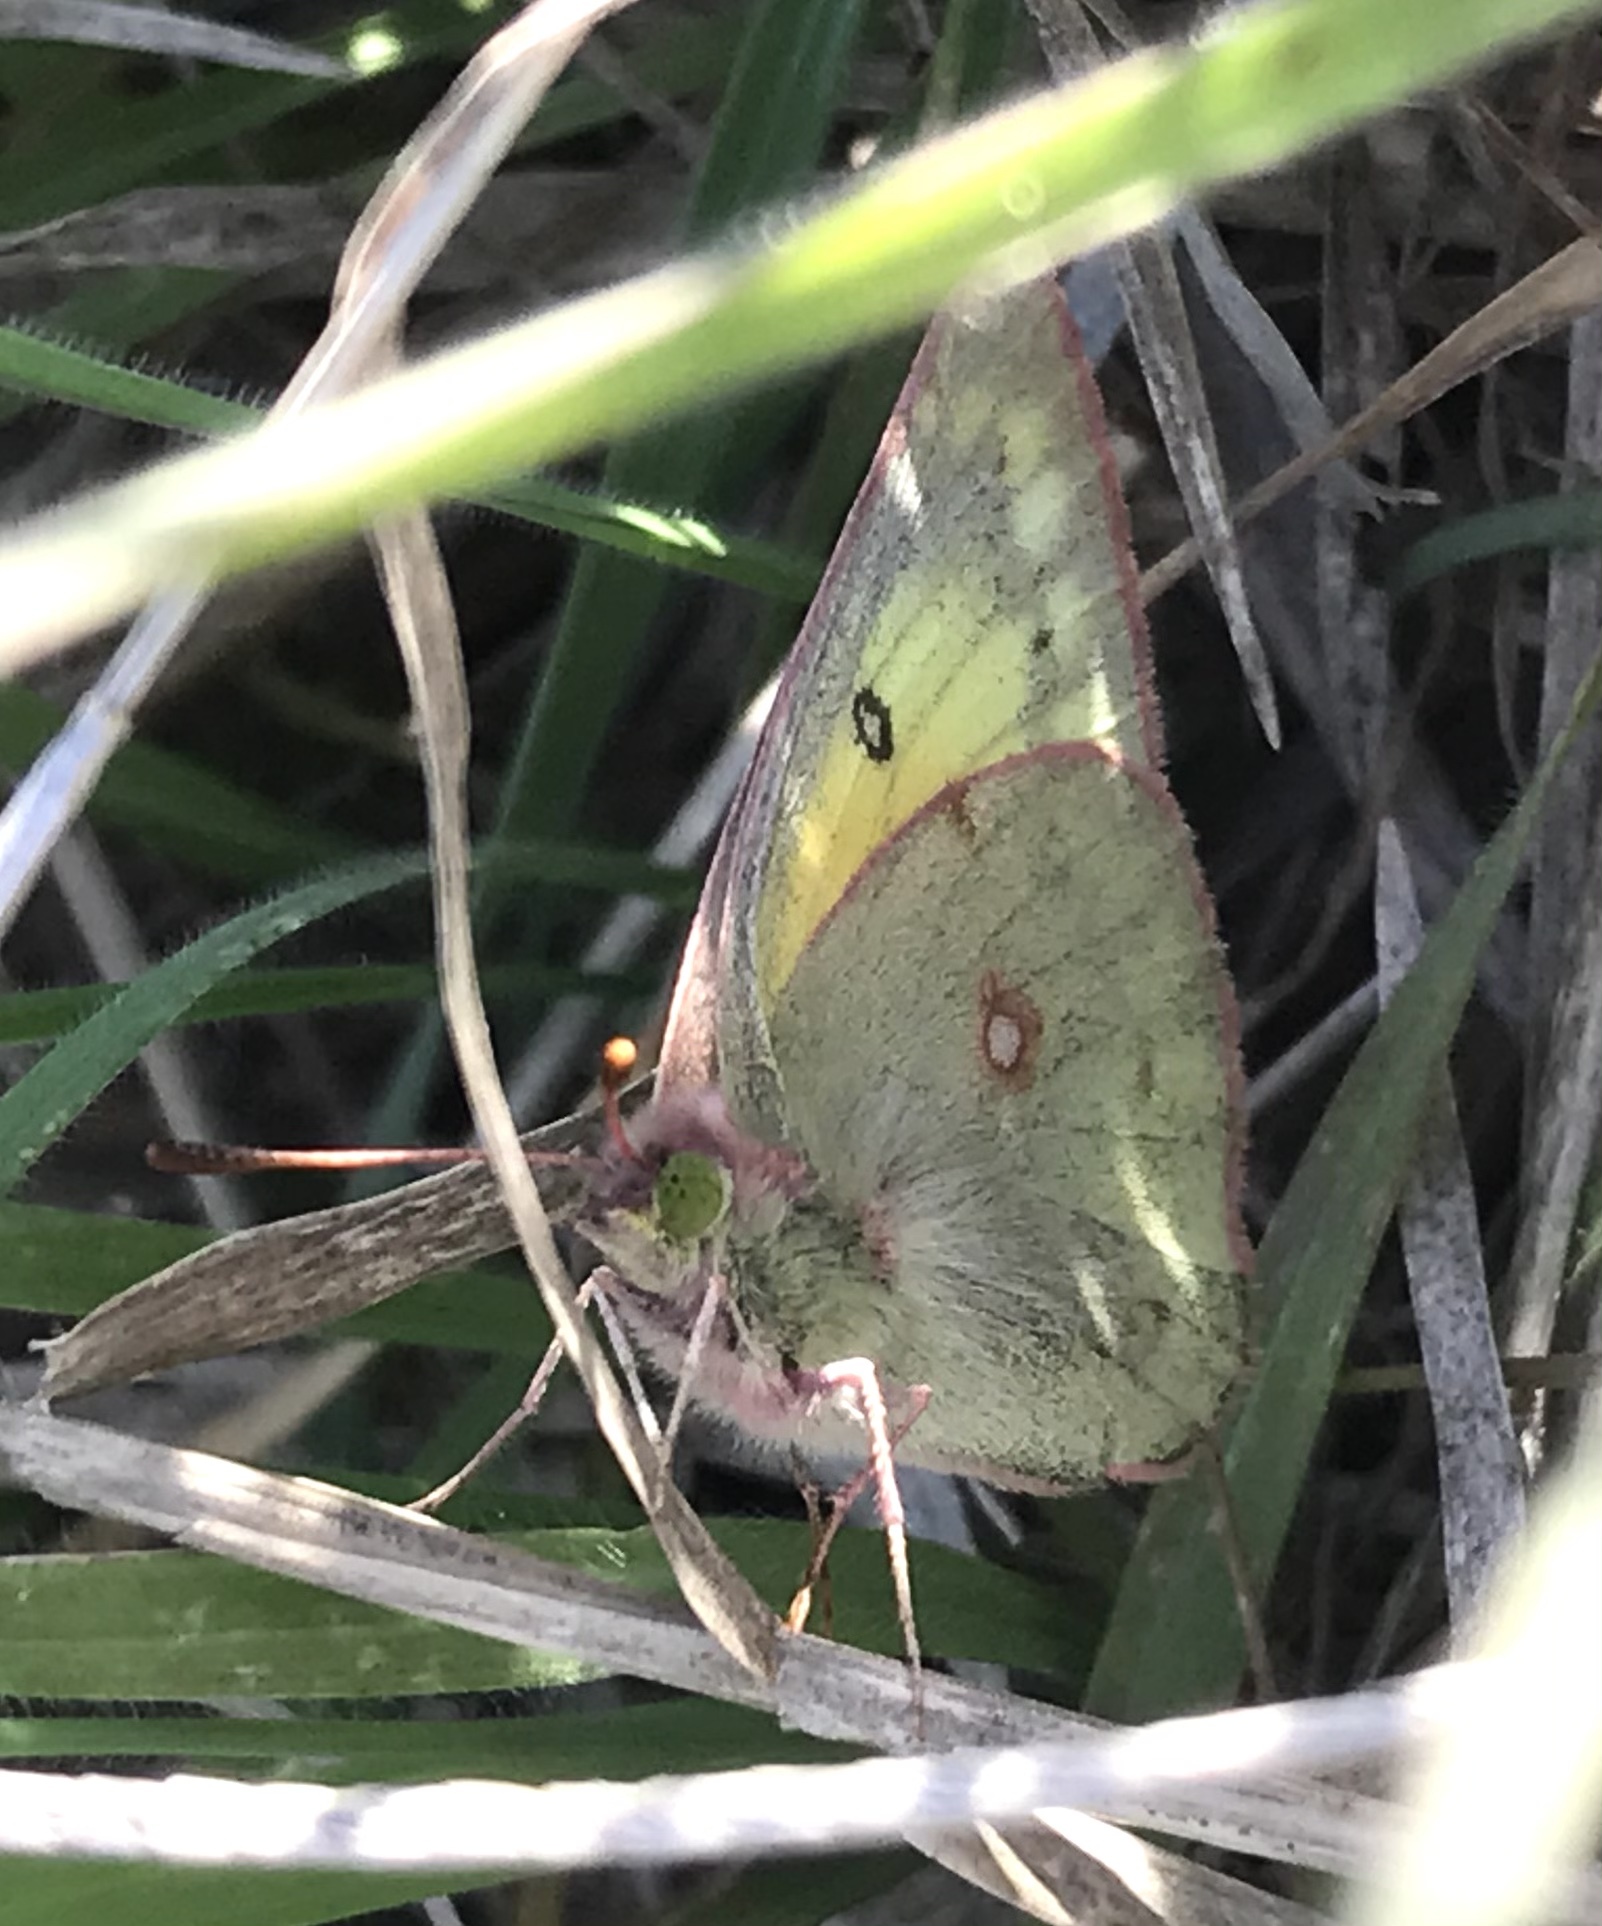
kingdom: Animalia
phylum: Arthropoda
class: Insecta
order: Lepidoptera
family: Pieridae
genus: Colias
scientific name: Colias eurytheme
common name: Alfalfa butterfly
